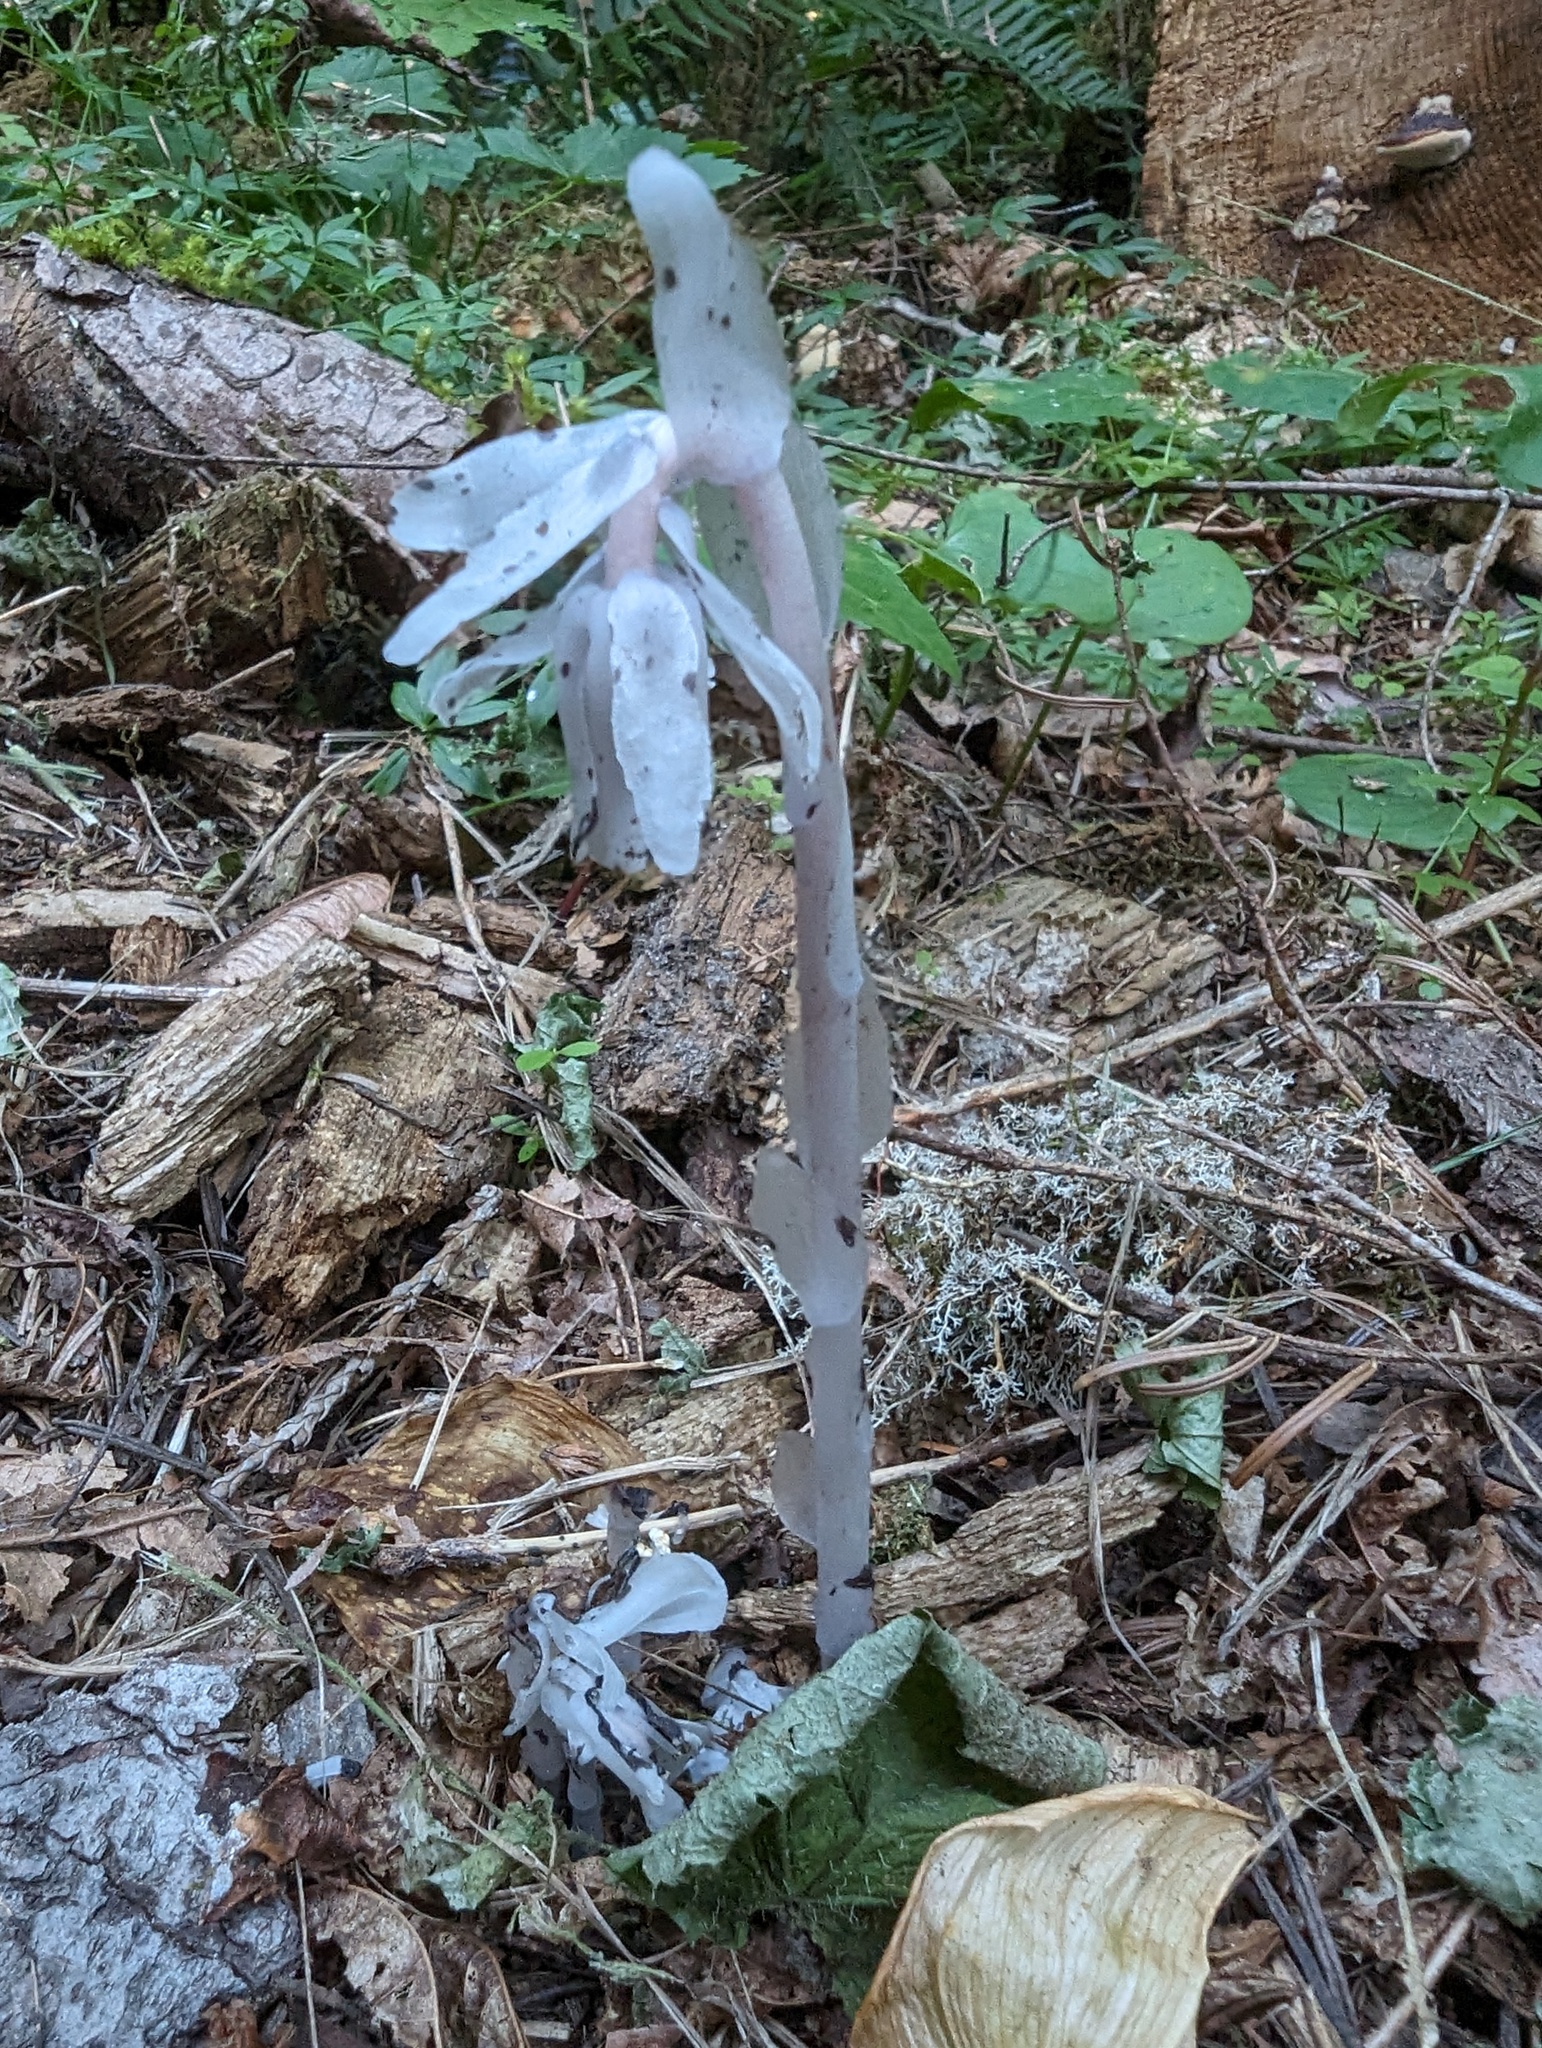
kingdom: Plantae
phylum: Tracheophyta
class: Magnoliopsida
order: Ericales
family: Ericaceae
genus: Monotropa
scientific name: Monotropa uniflora
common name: Convulsion root
